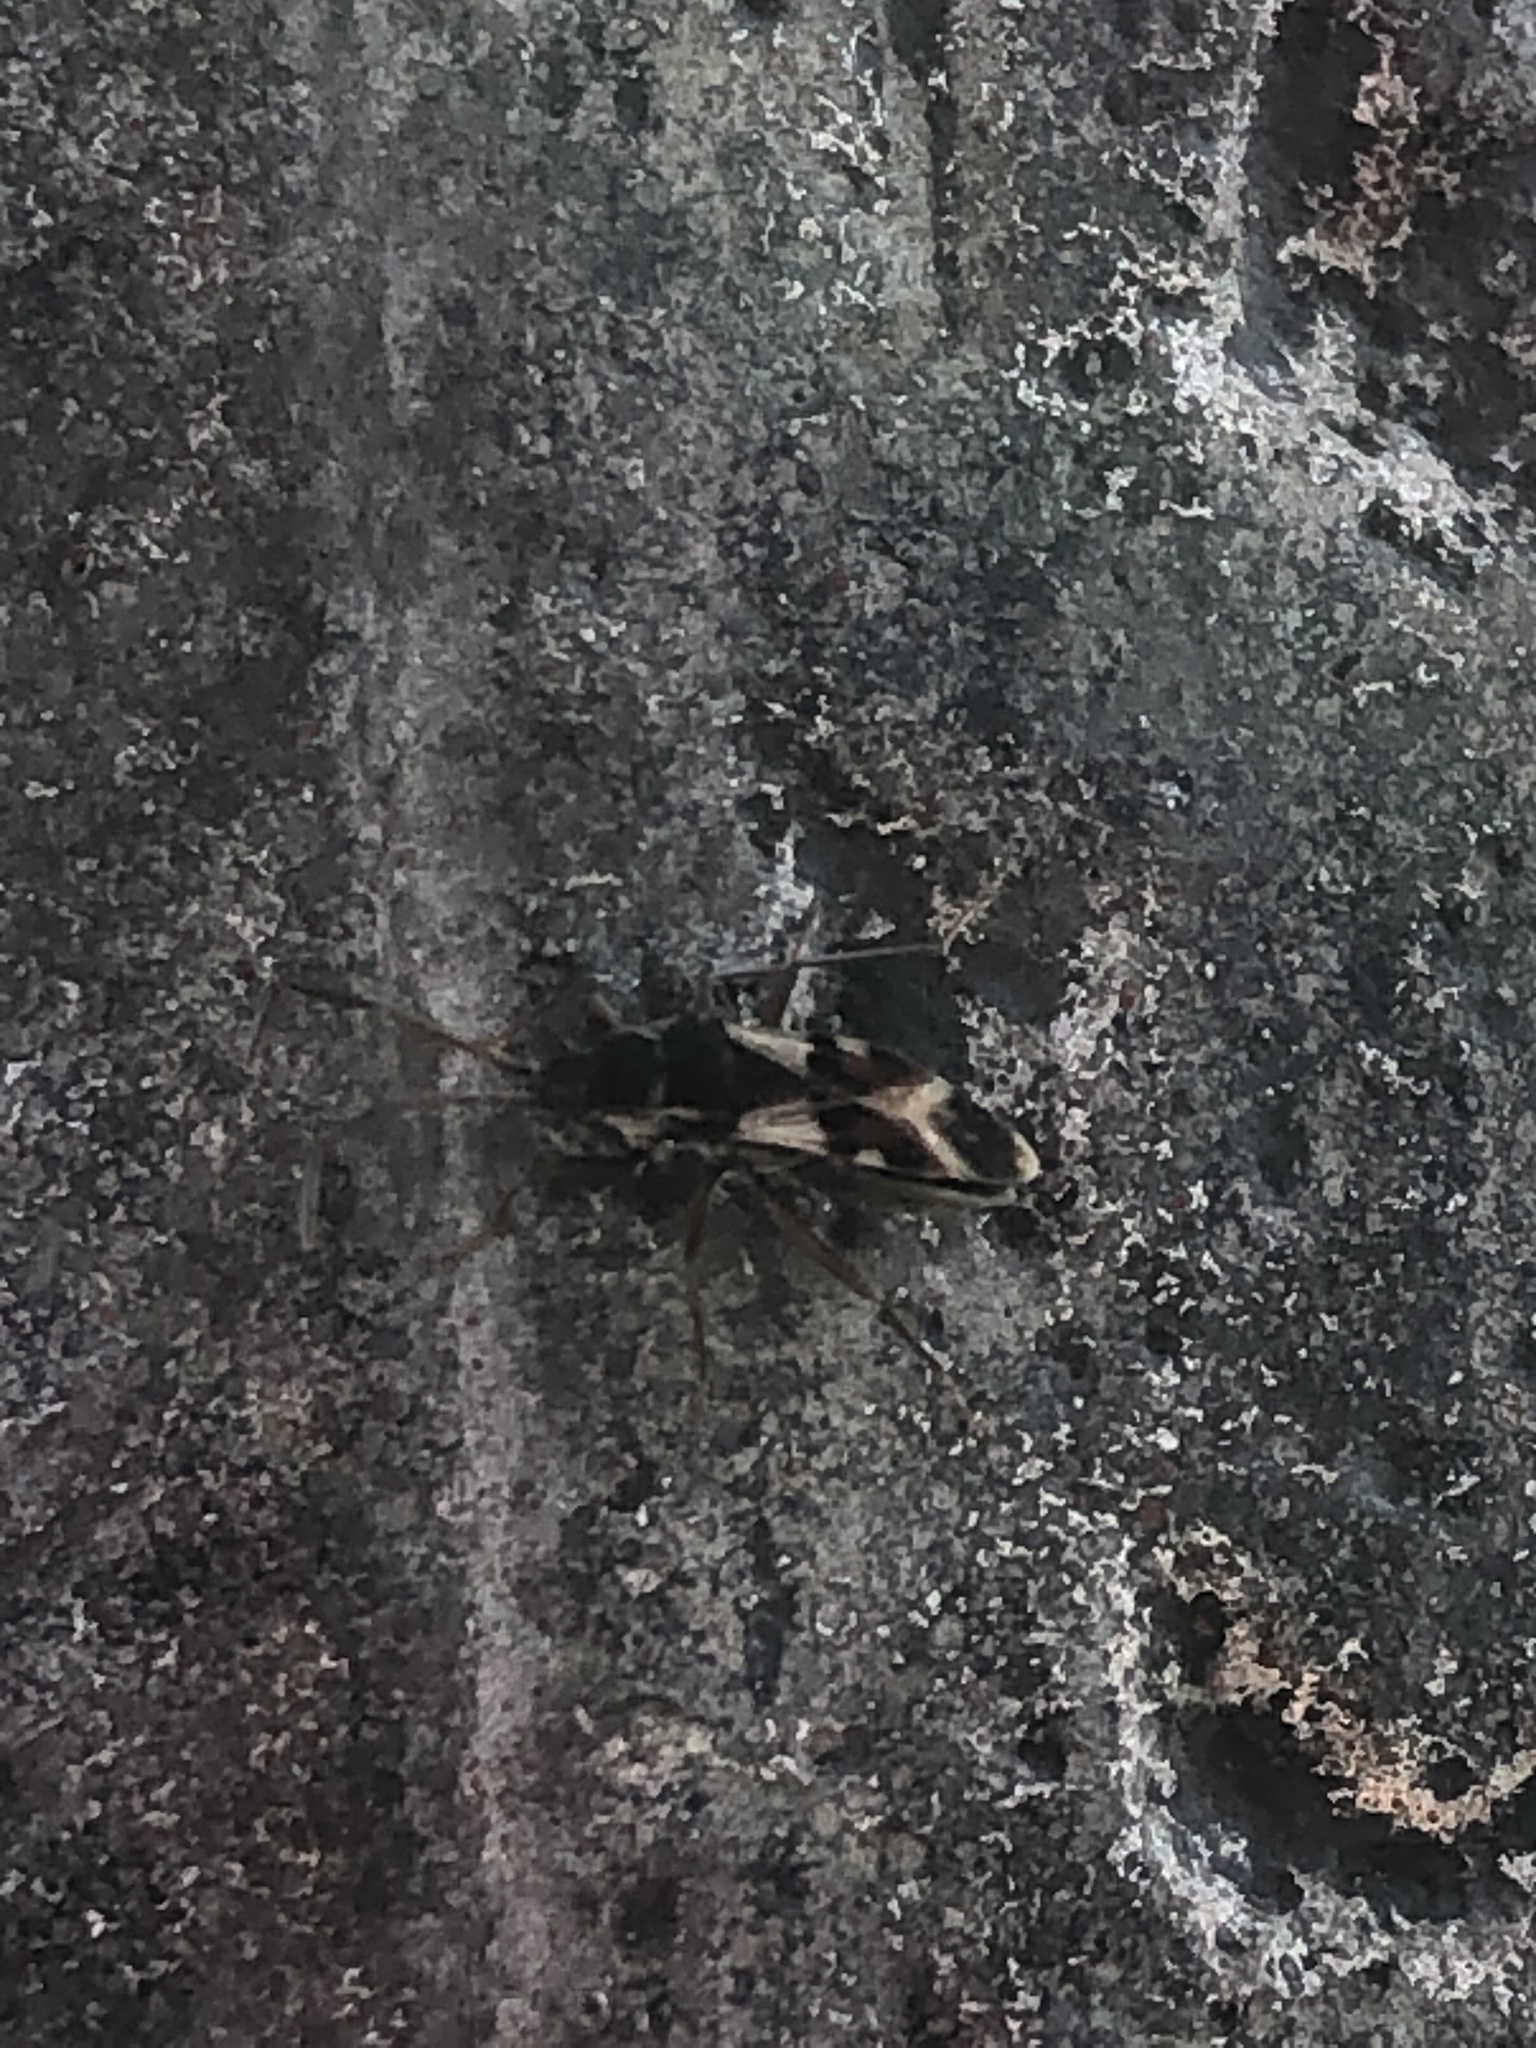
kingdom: Animalia
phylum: Arthropoda
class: Insecta
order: Hemiptera
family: Rhyparochromidae
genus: Paradieuches
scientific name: Paradieuches dissimilis
